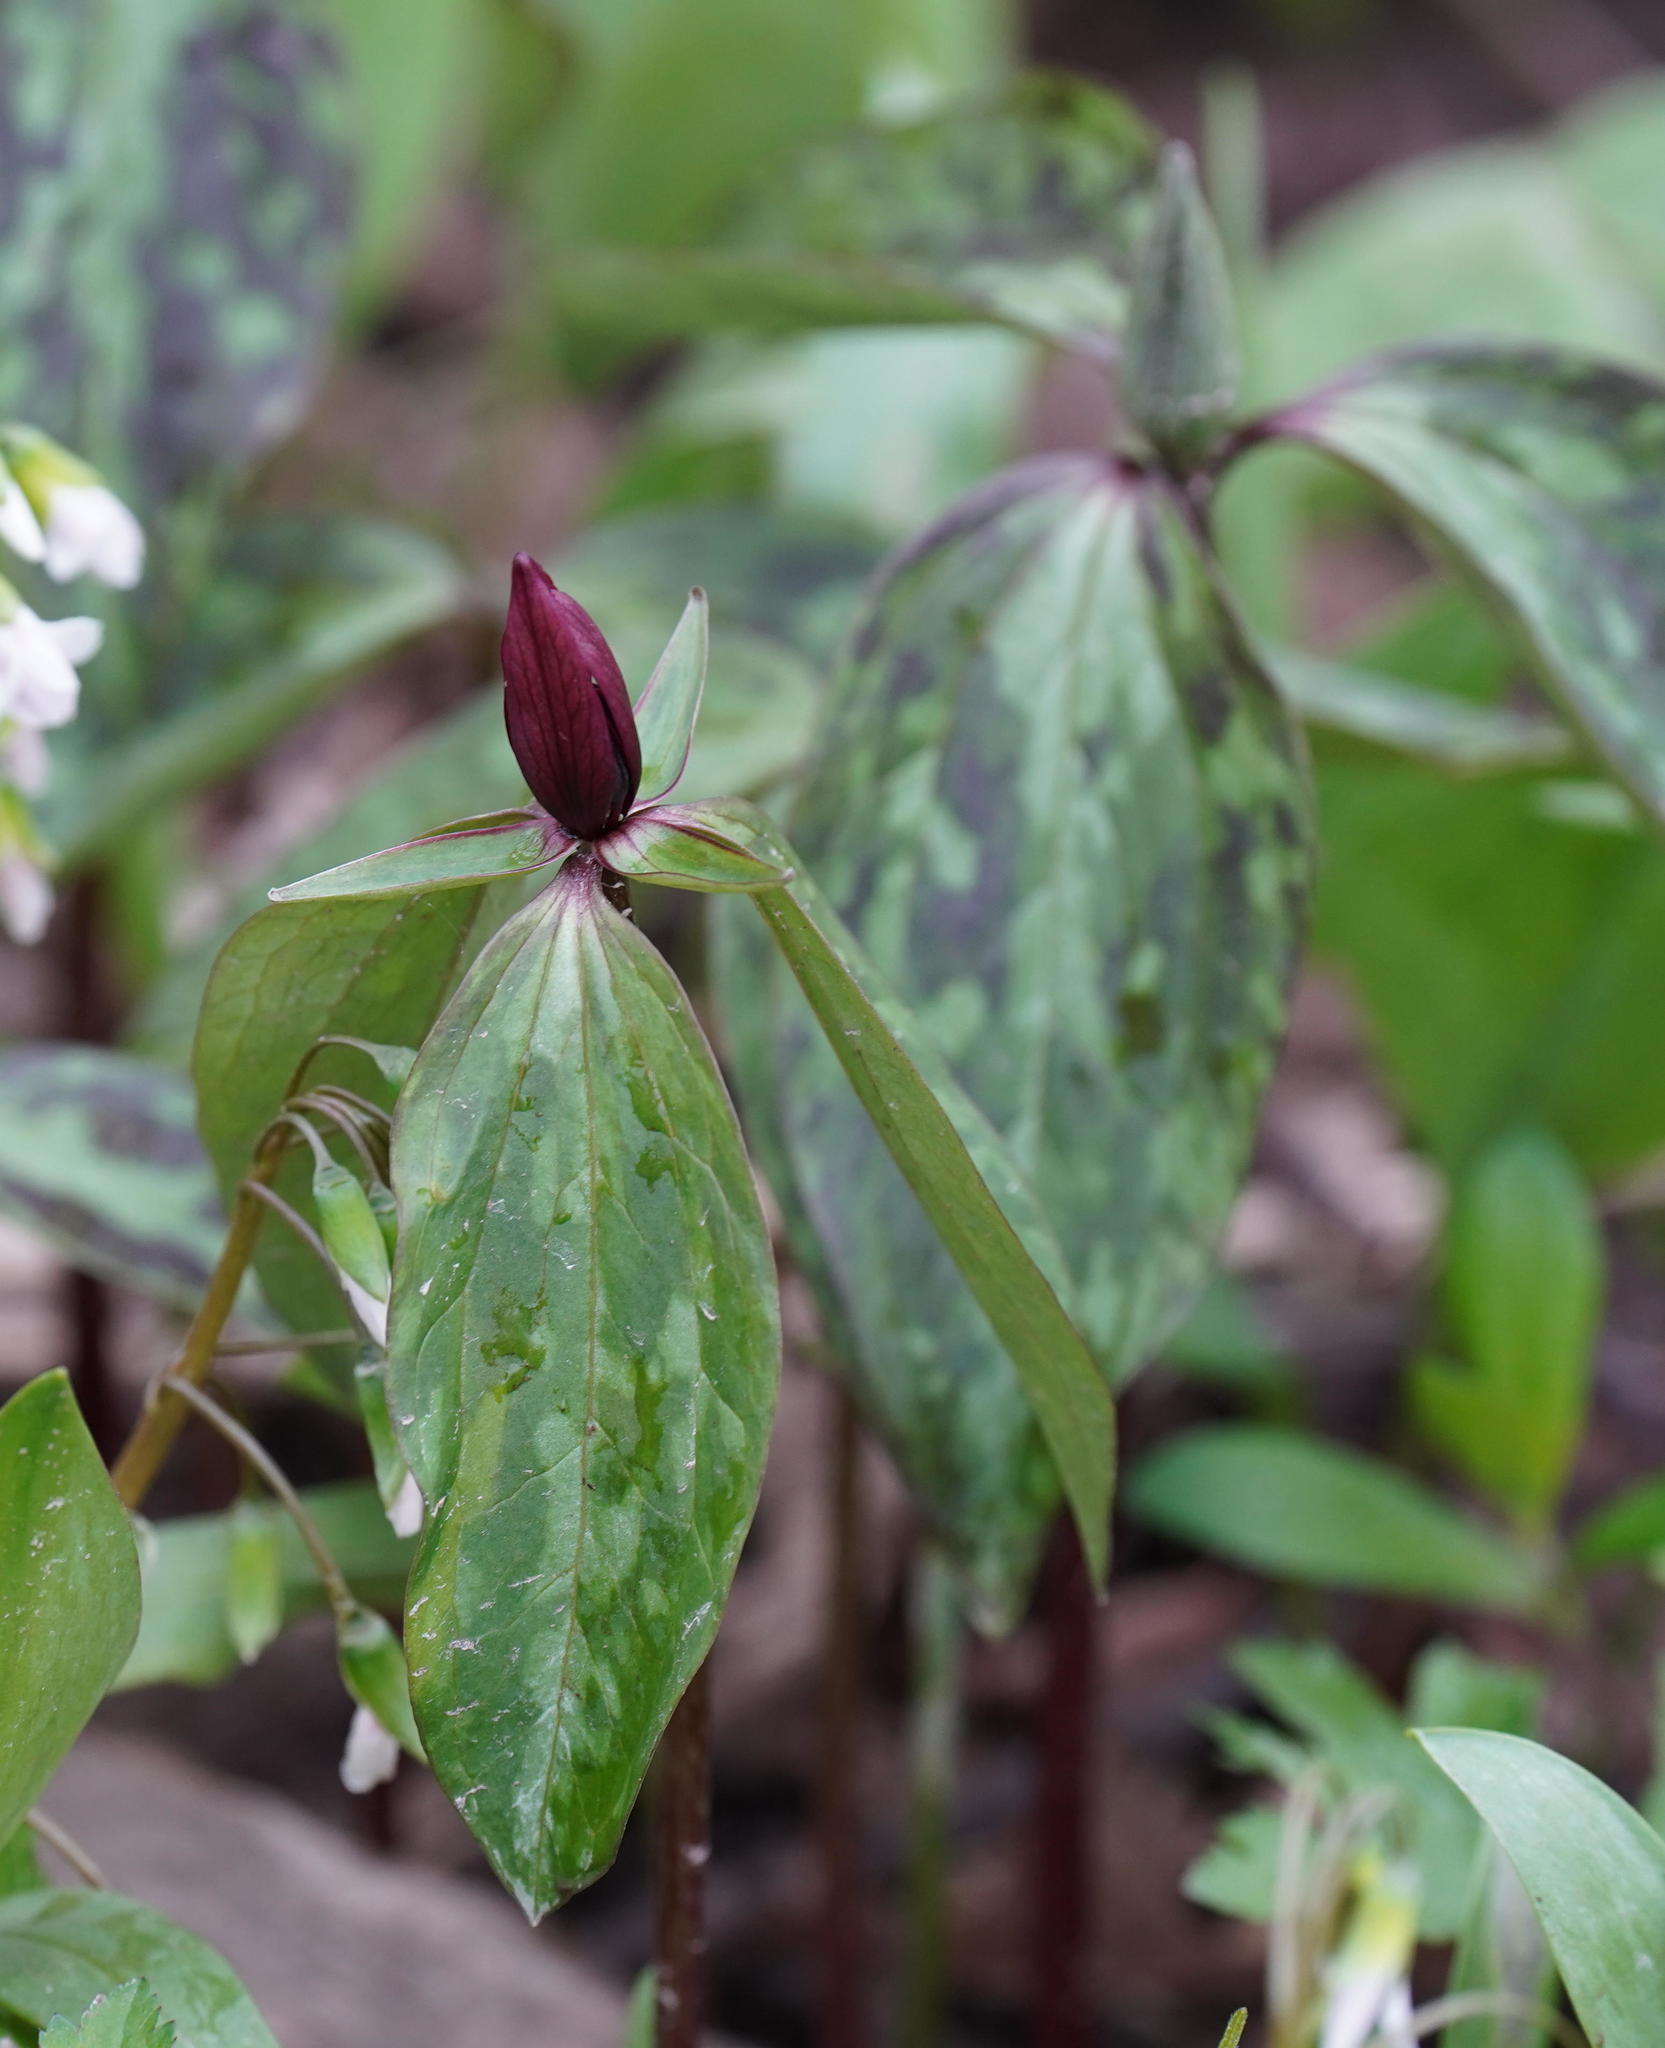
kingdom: Plantae
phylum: Tracheophyta
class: Liliopsida
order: Liliales
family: Melanthiaceae
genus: Trillium
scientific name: Trillium recurvatum
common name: Bloody butcher
